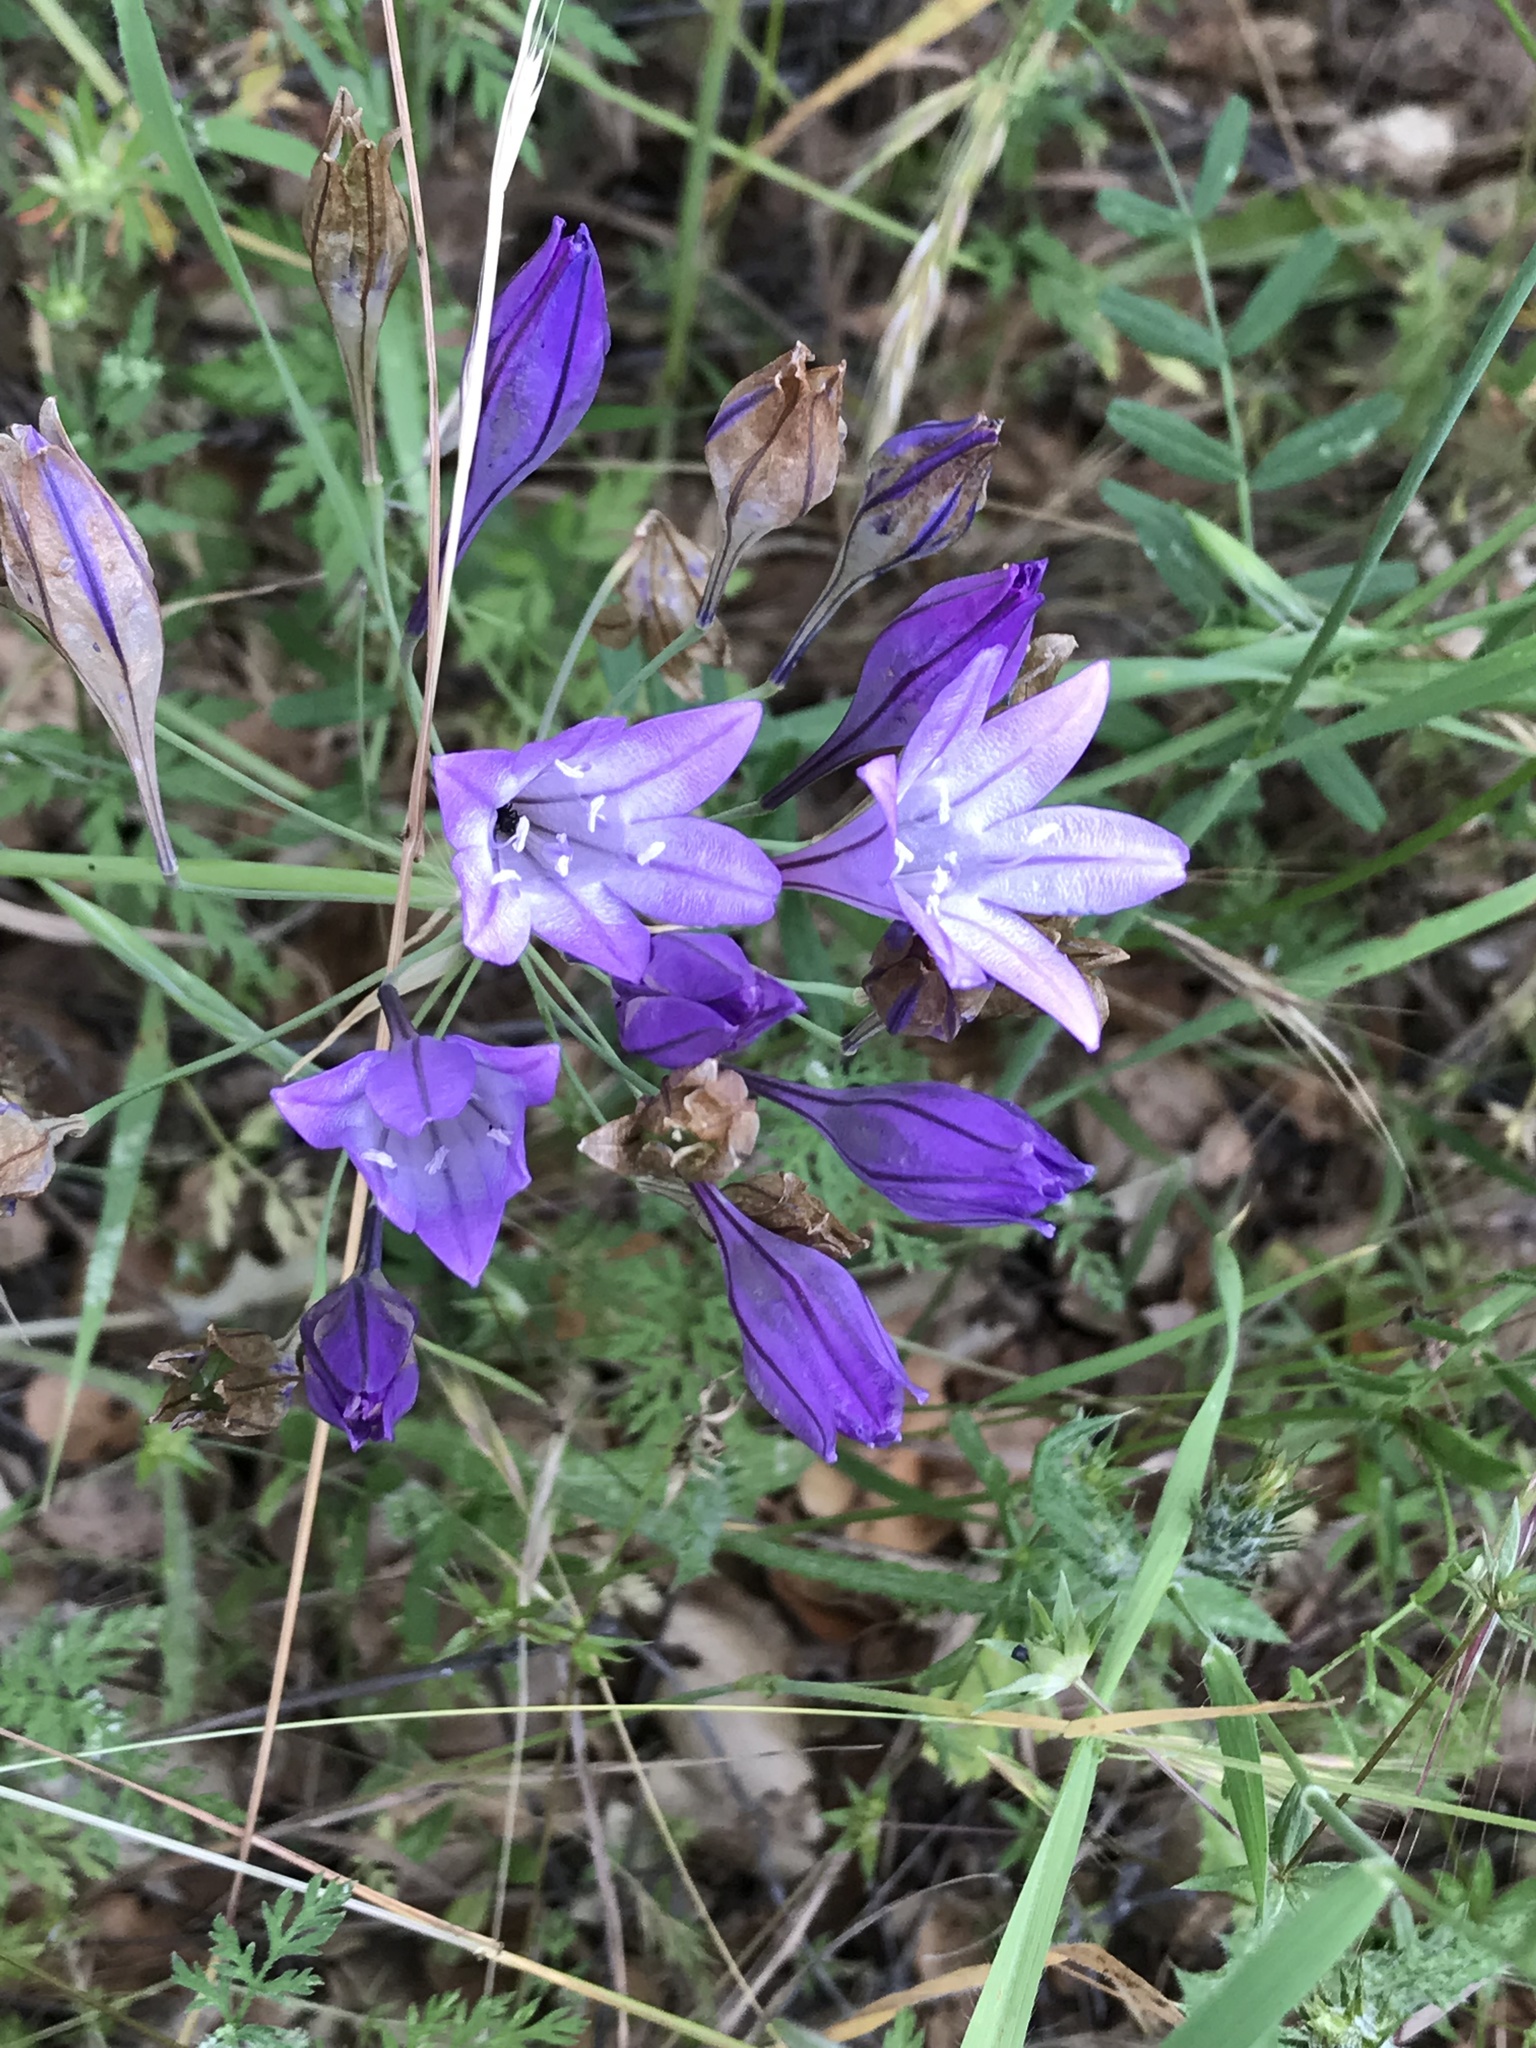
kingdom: Plantae
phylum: Tracheophyta
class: Liliopsida
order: Asparagales
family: Asparagaceae
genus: Triteleia
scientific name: Triteleia laxa
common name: Triplet-lily
